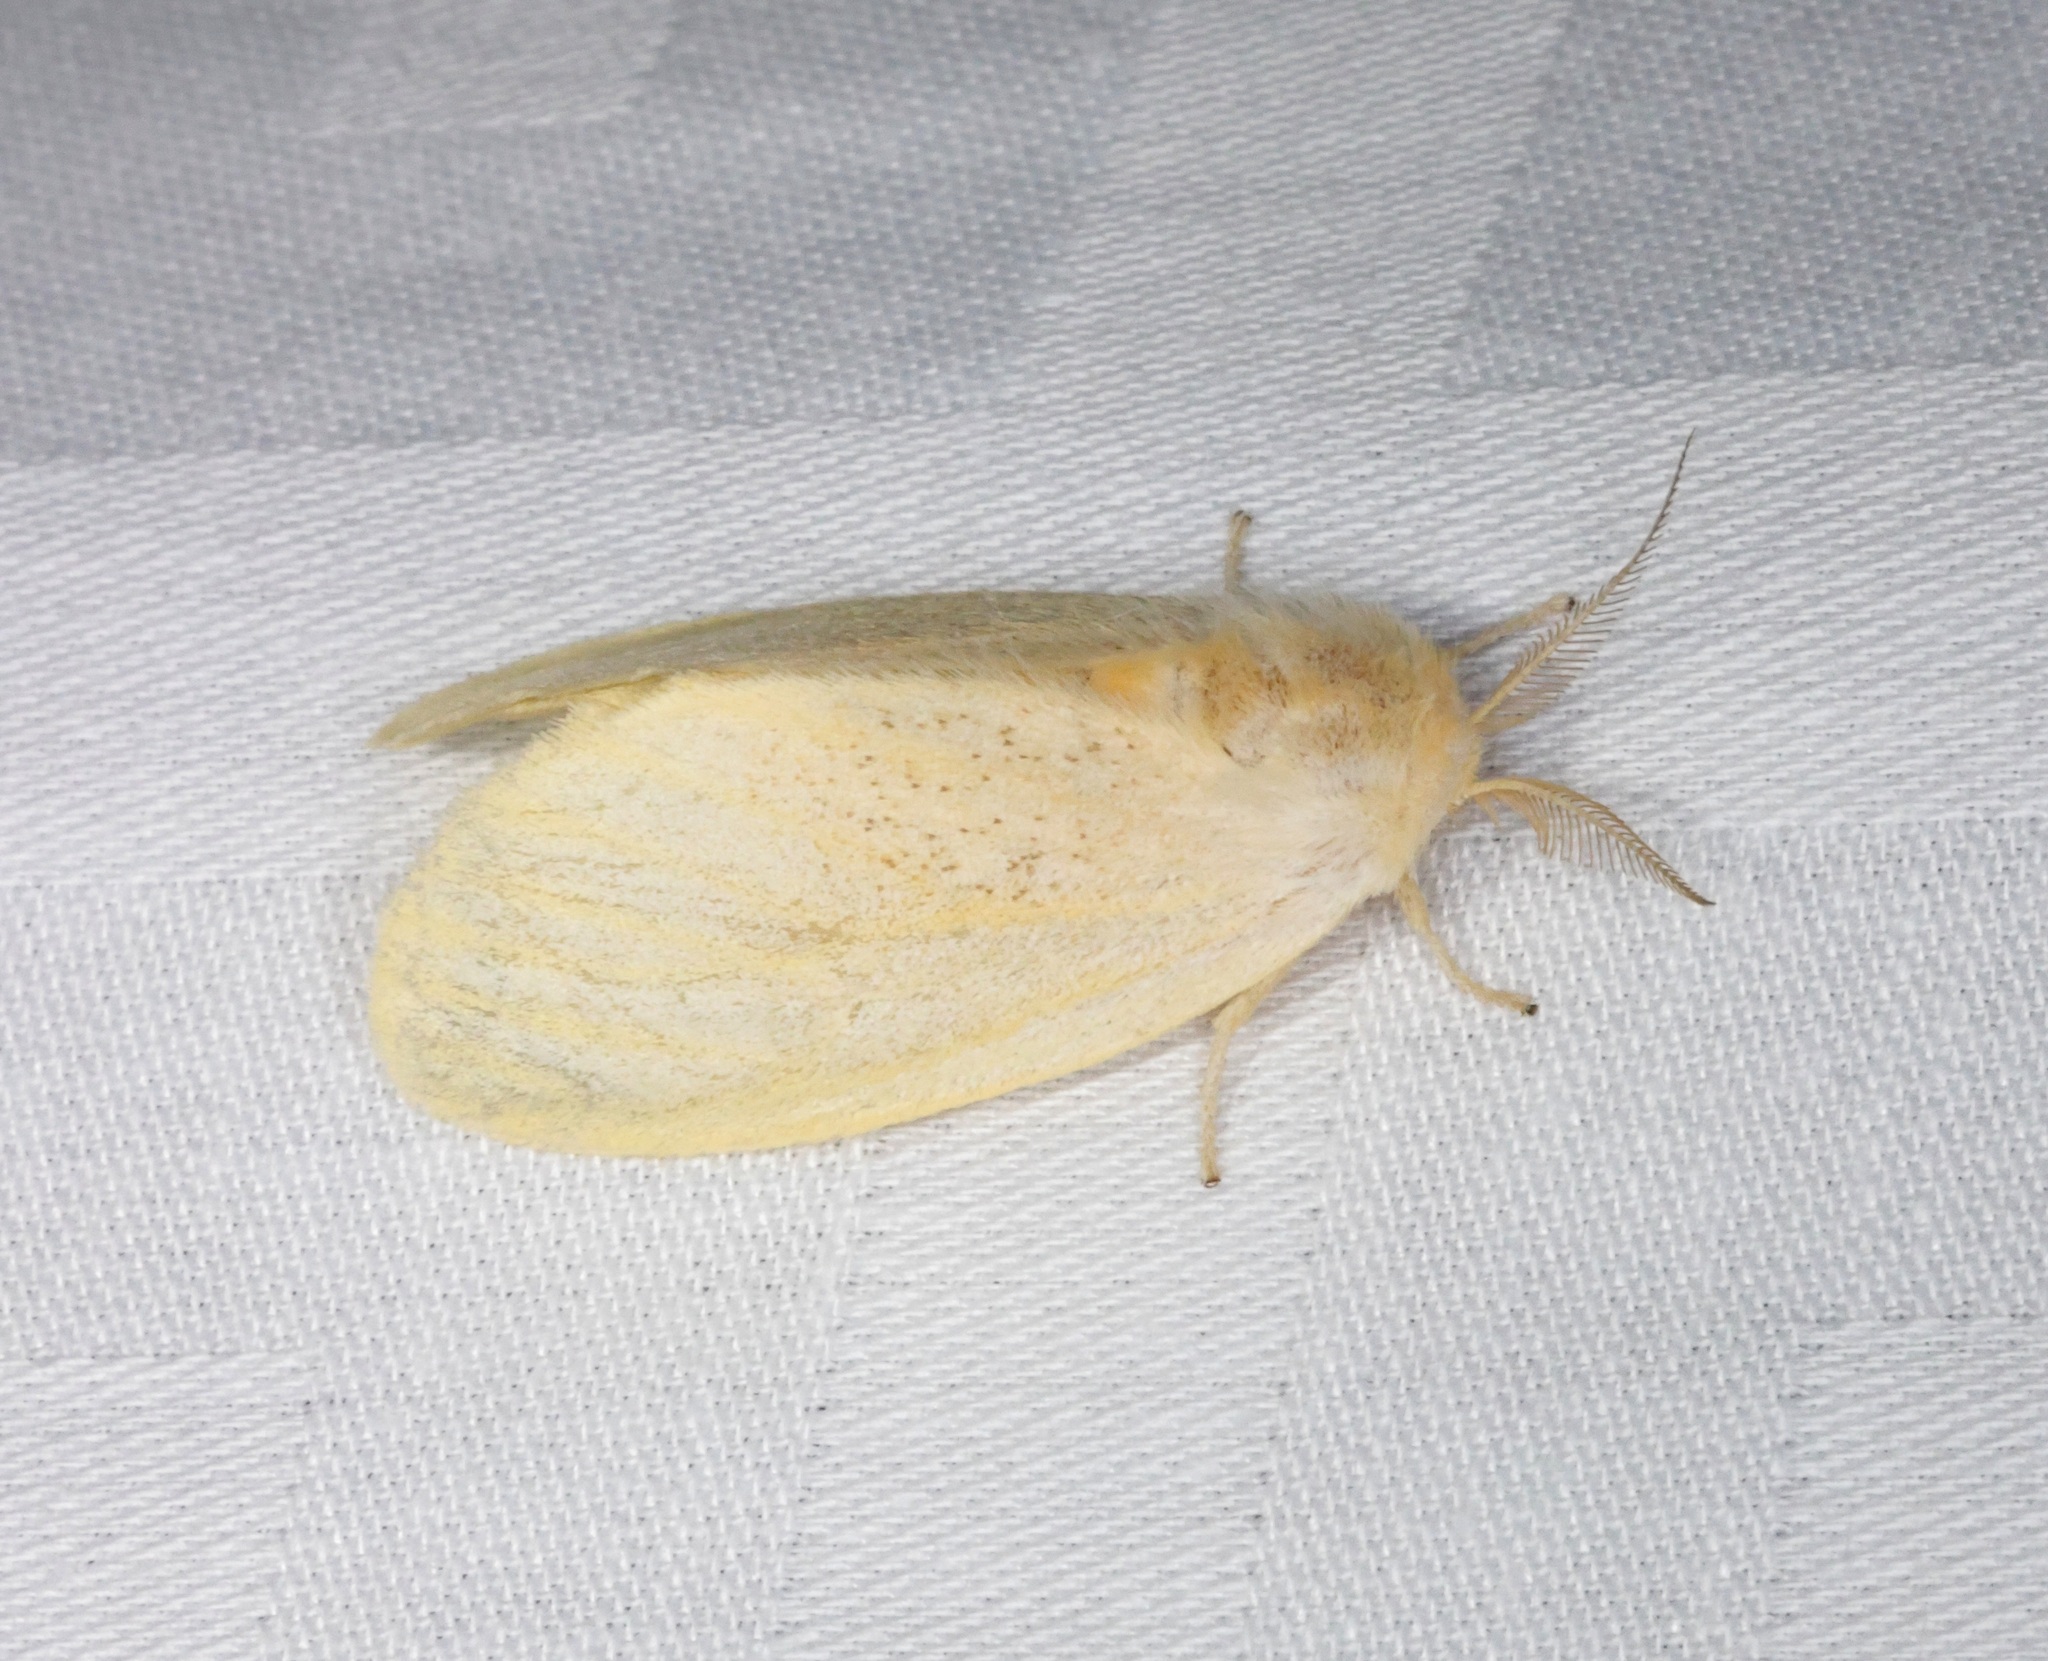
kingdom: Animalia
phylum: Arthropoda
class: Insecta
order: Lepidoptera
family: Erebidae
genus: Perina
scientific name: Perina nuda
